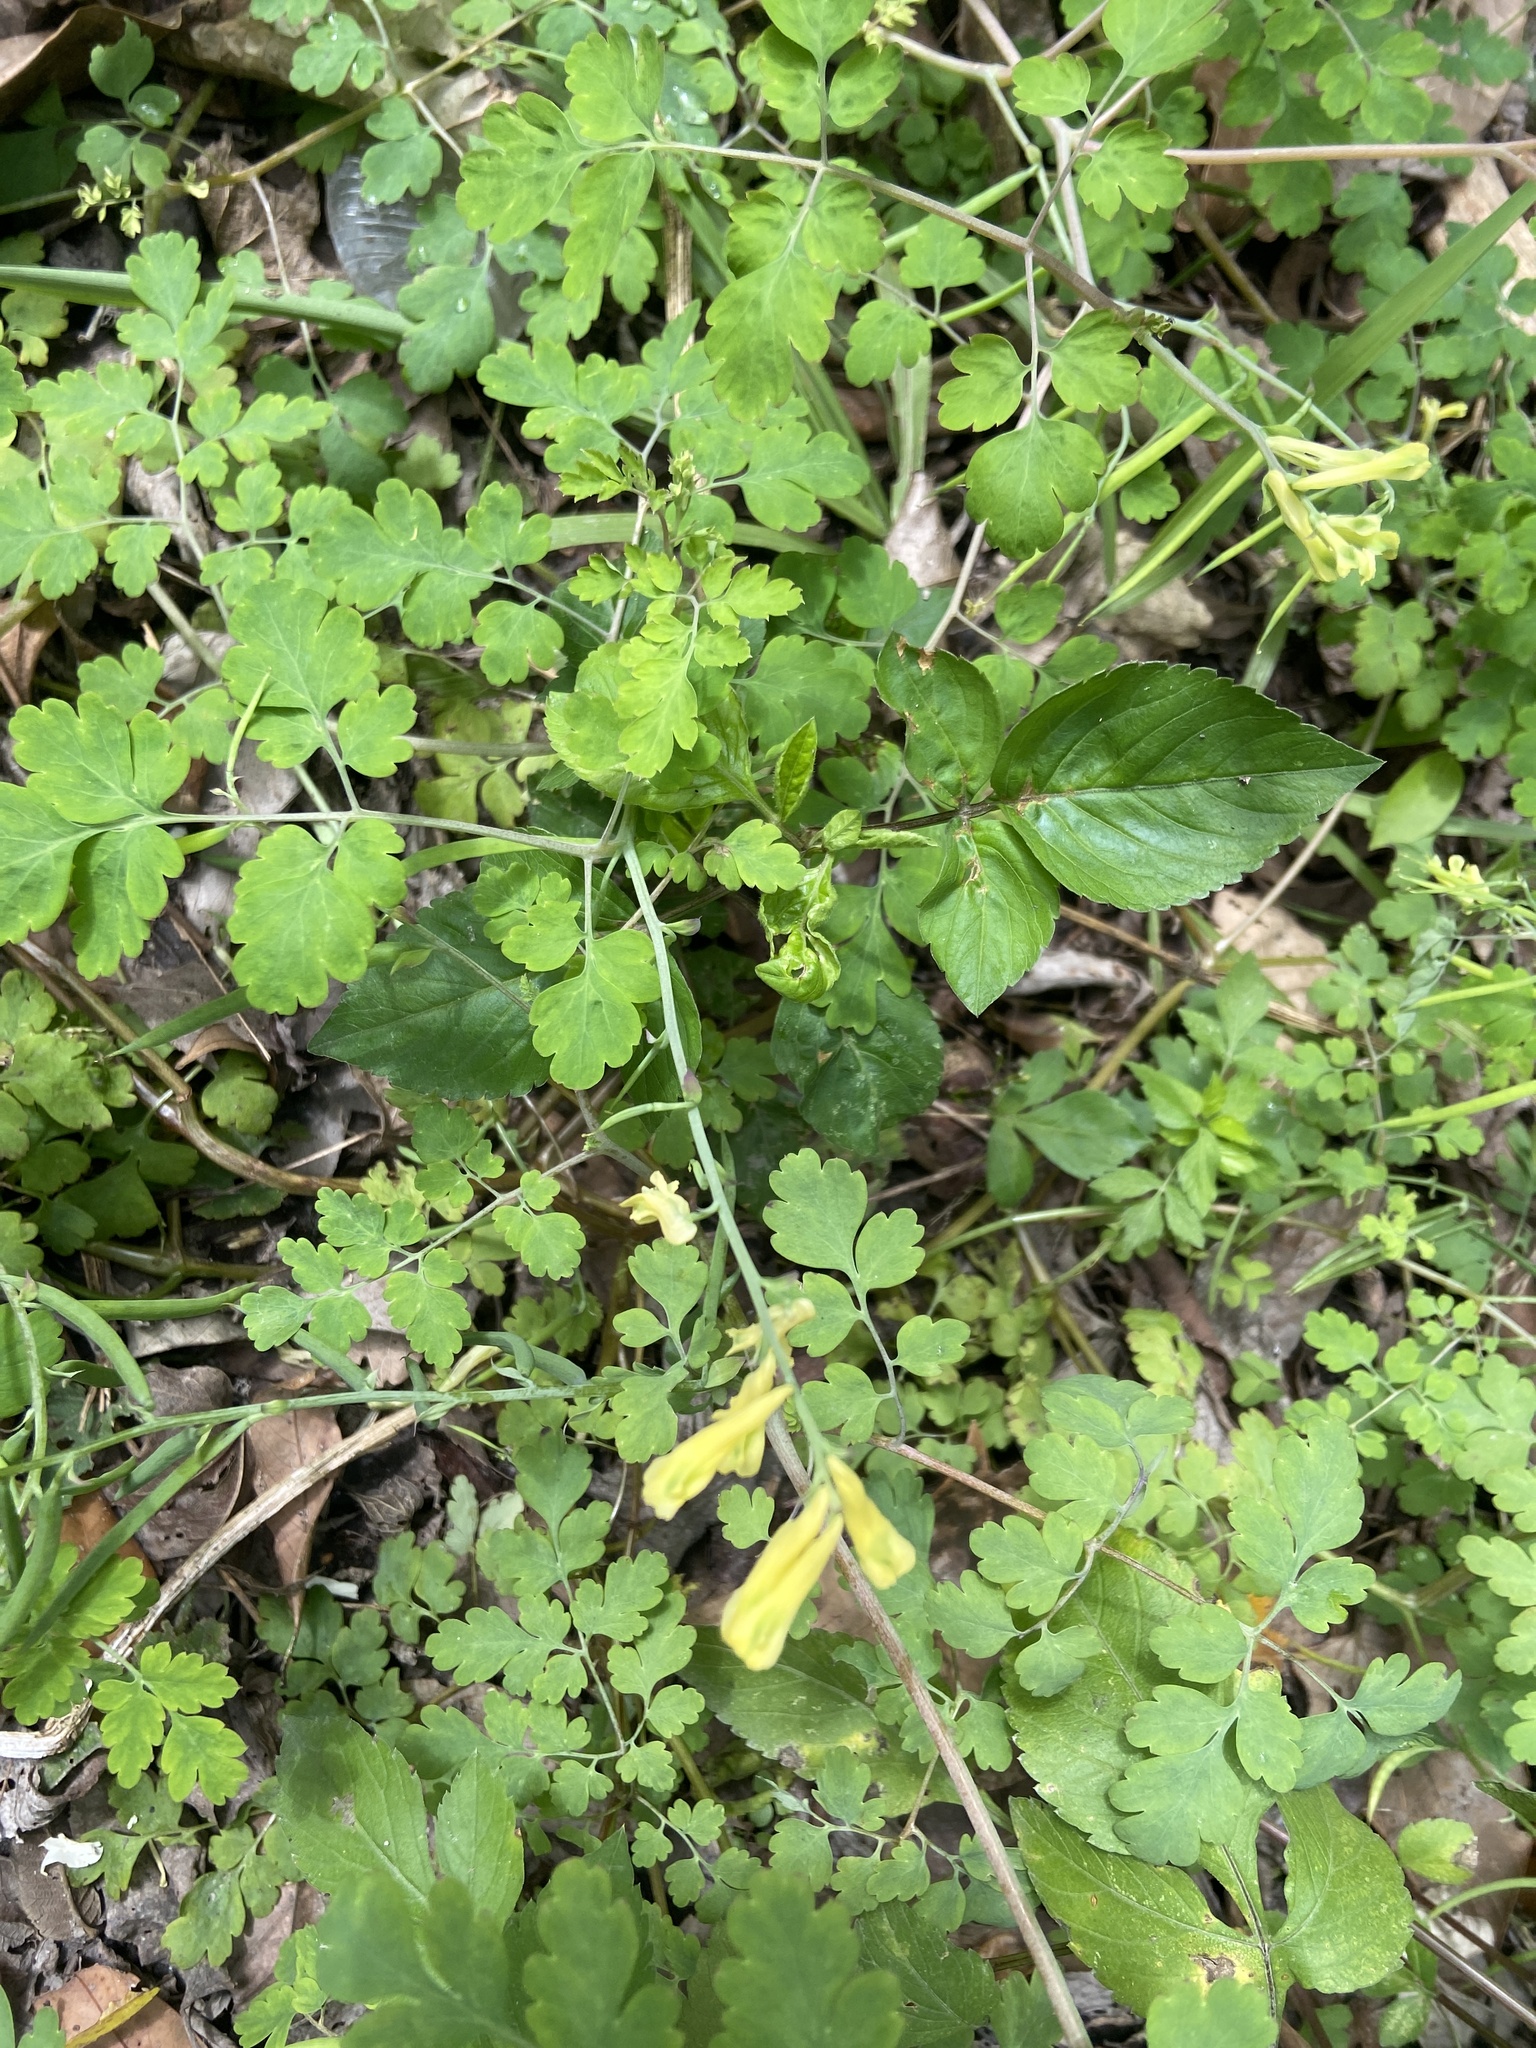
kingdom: Plantae
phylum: Tracheophyta
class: Magnoliopsida
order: Ranunculales
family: Papaveraceae
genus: Corydalis
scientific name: Corydalis balansae
